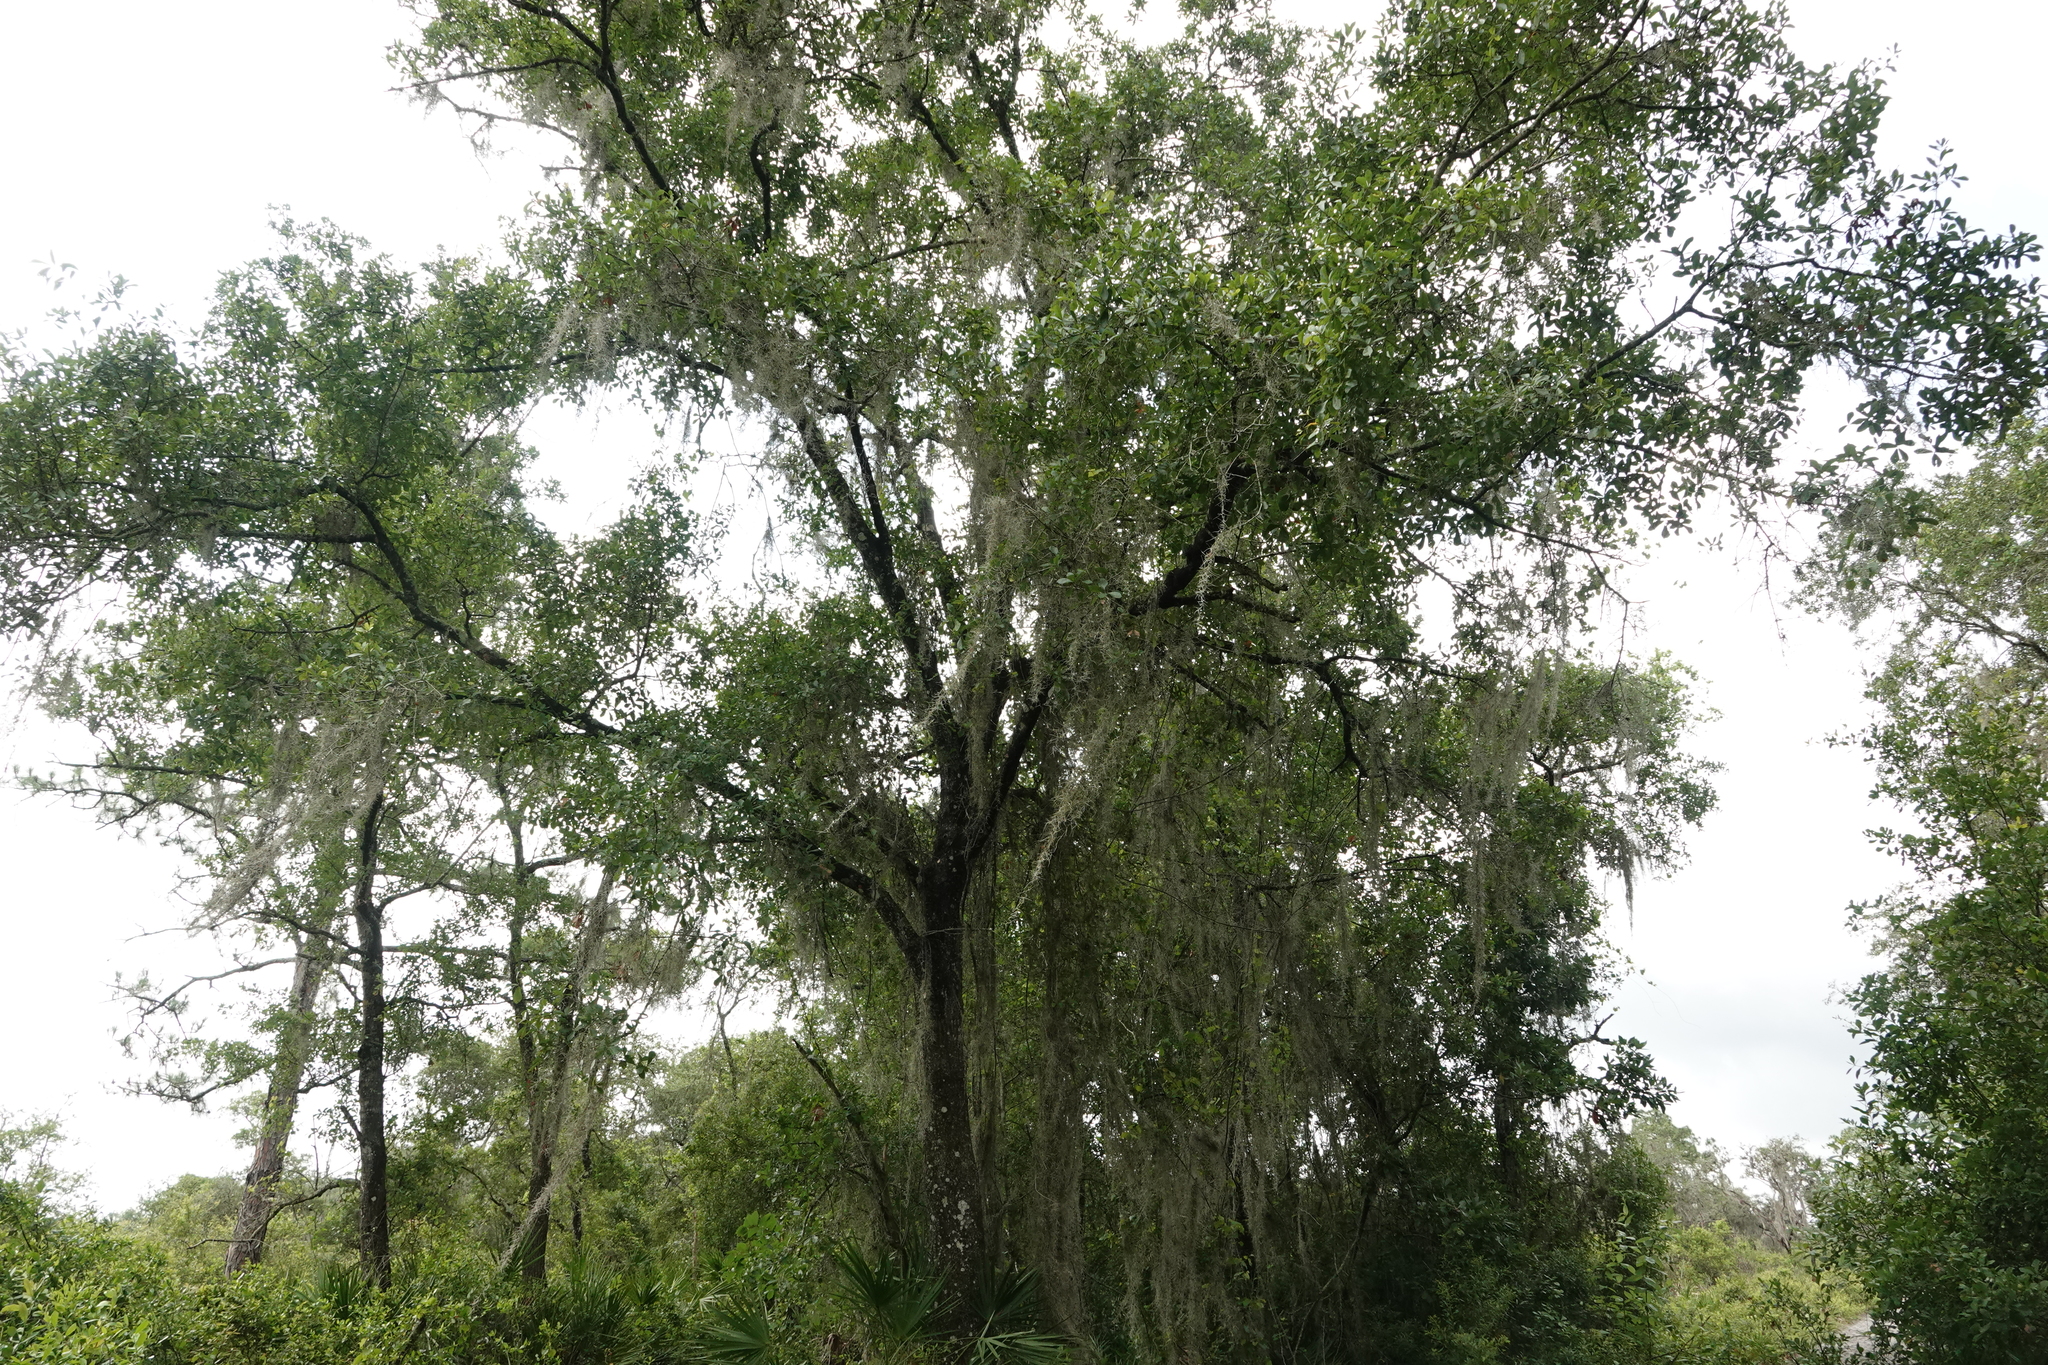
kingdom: Plantae
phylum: Tracheophyta
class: Magnoliopsida
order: Fagales
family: Fagaceae
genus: Quercus
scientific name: Quercus nigra
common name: Water oak
